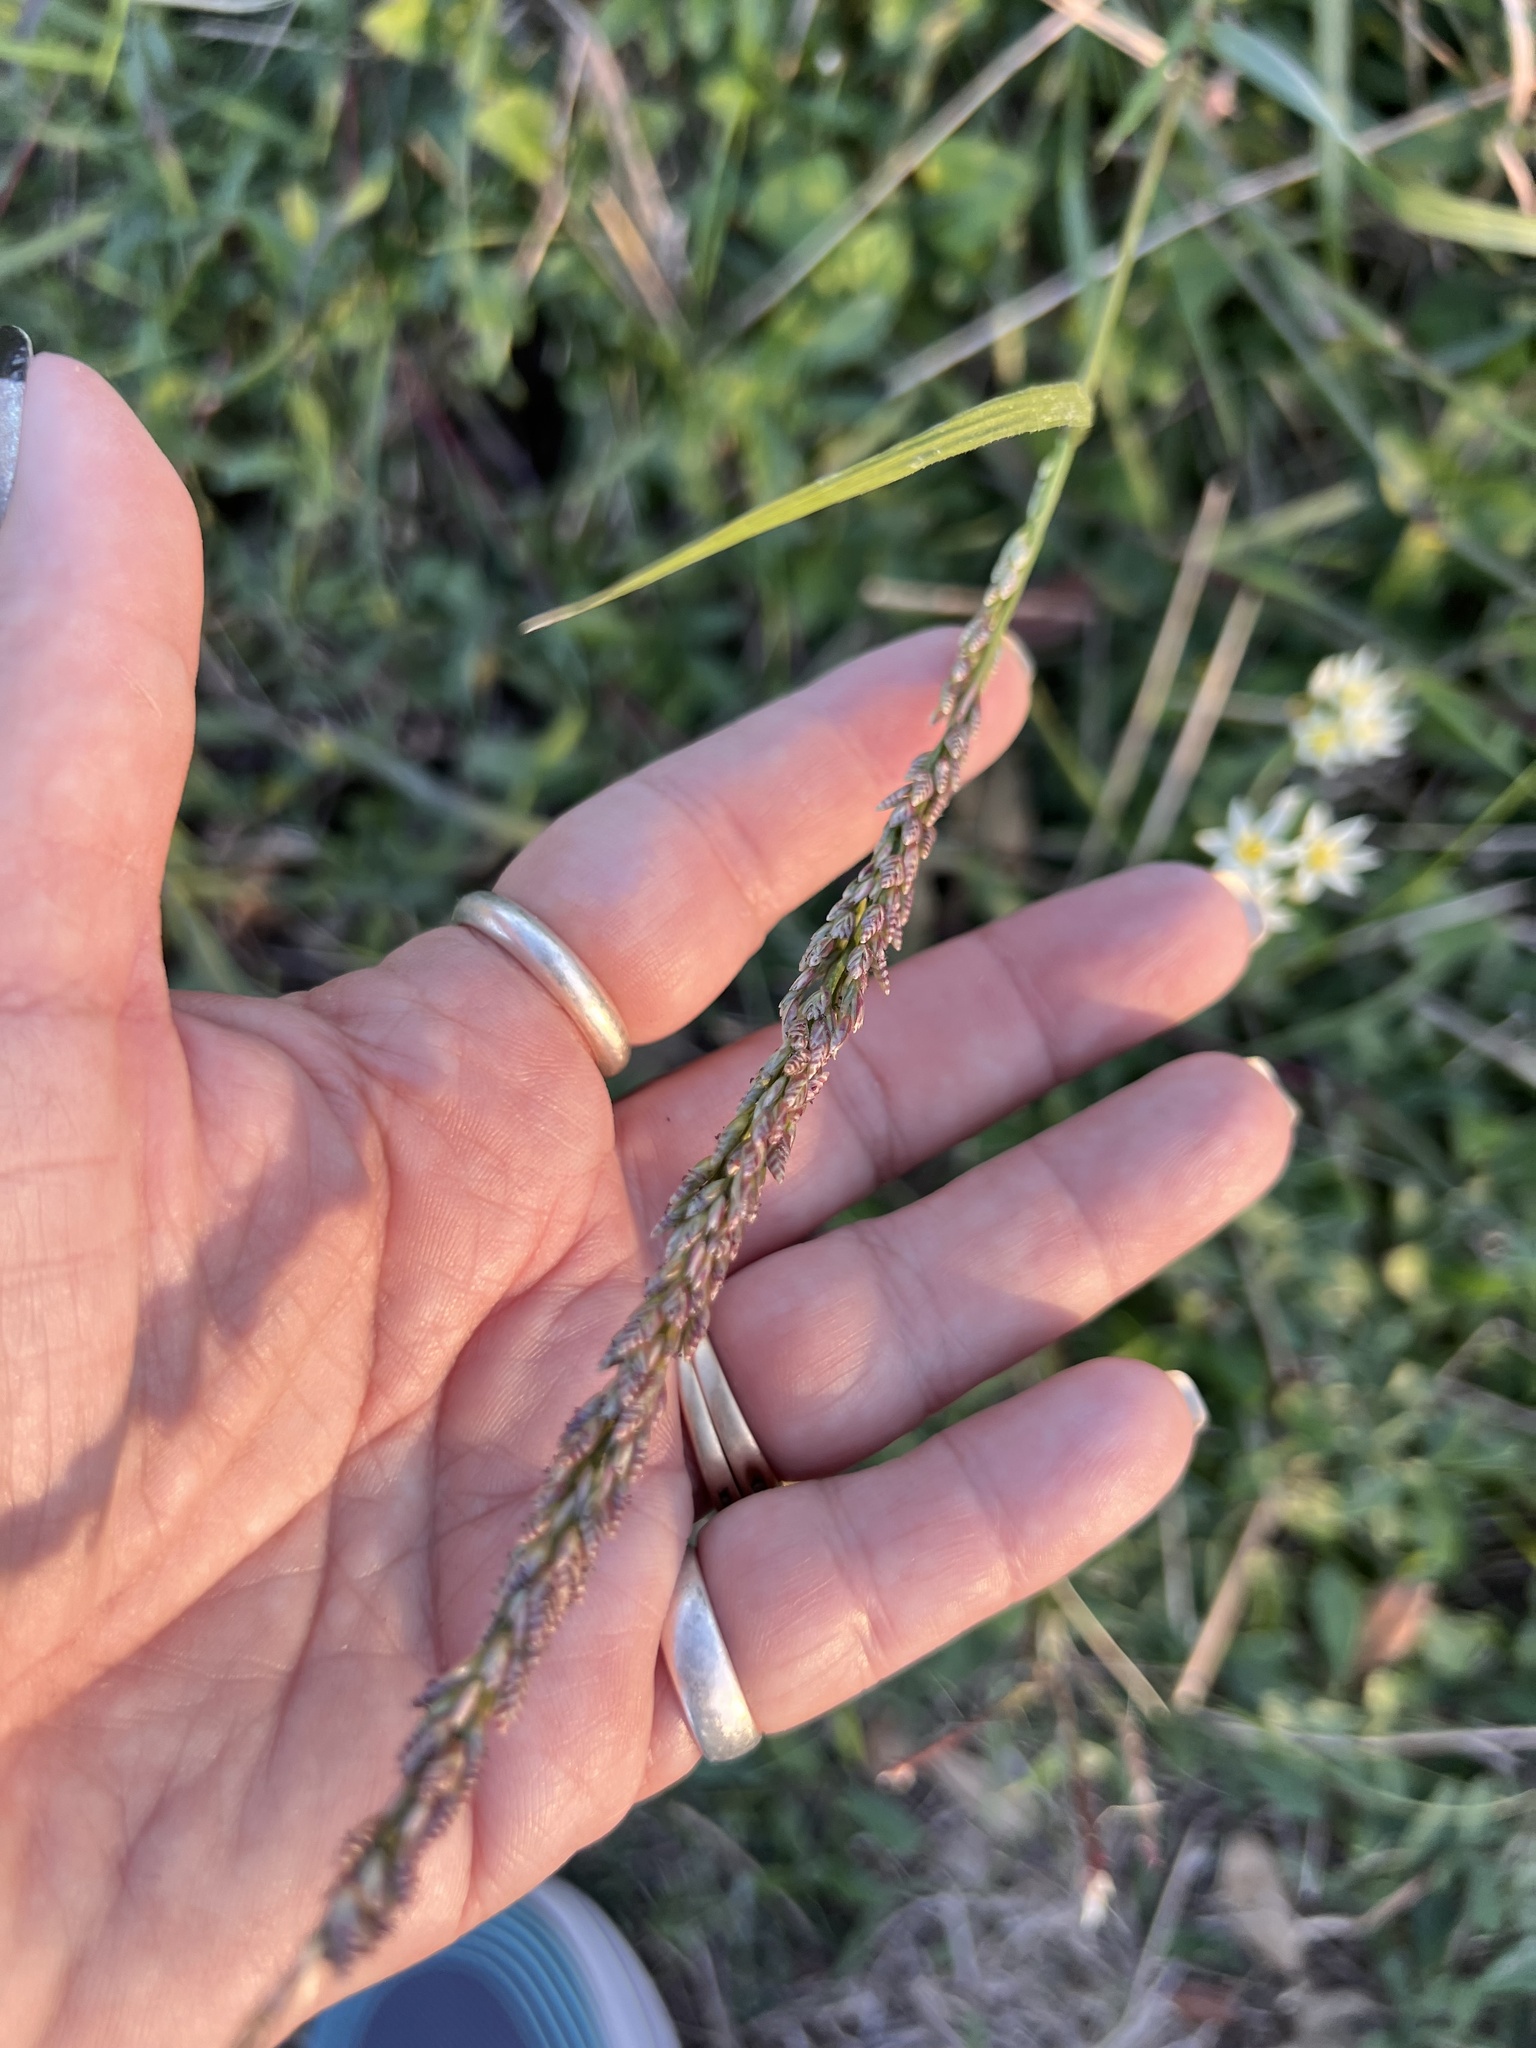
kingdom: Plantae
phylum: Tracheophyta
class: Liliopsida
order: Poales
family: Poaceae
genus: Tridens
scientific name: Tridens albescens
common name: White tridens
